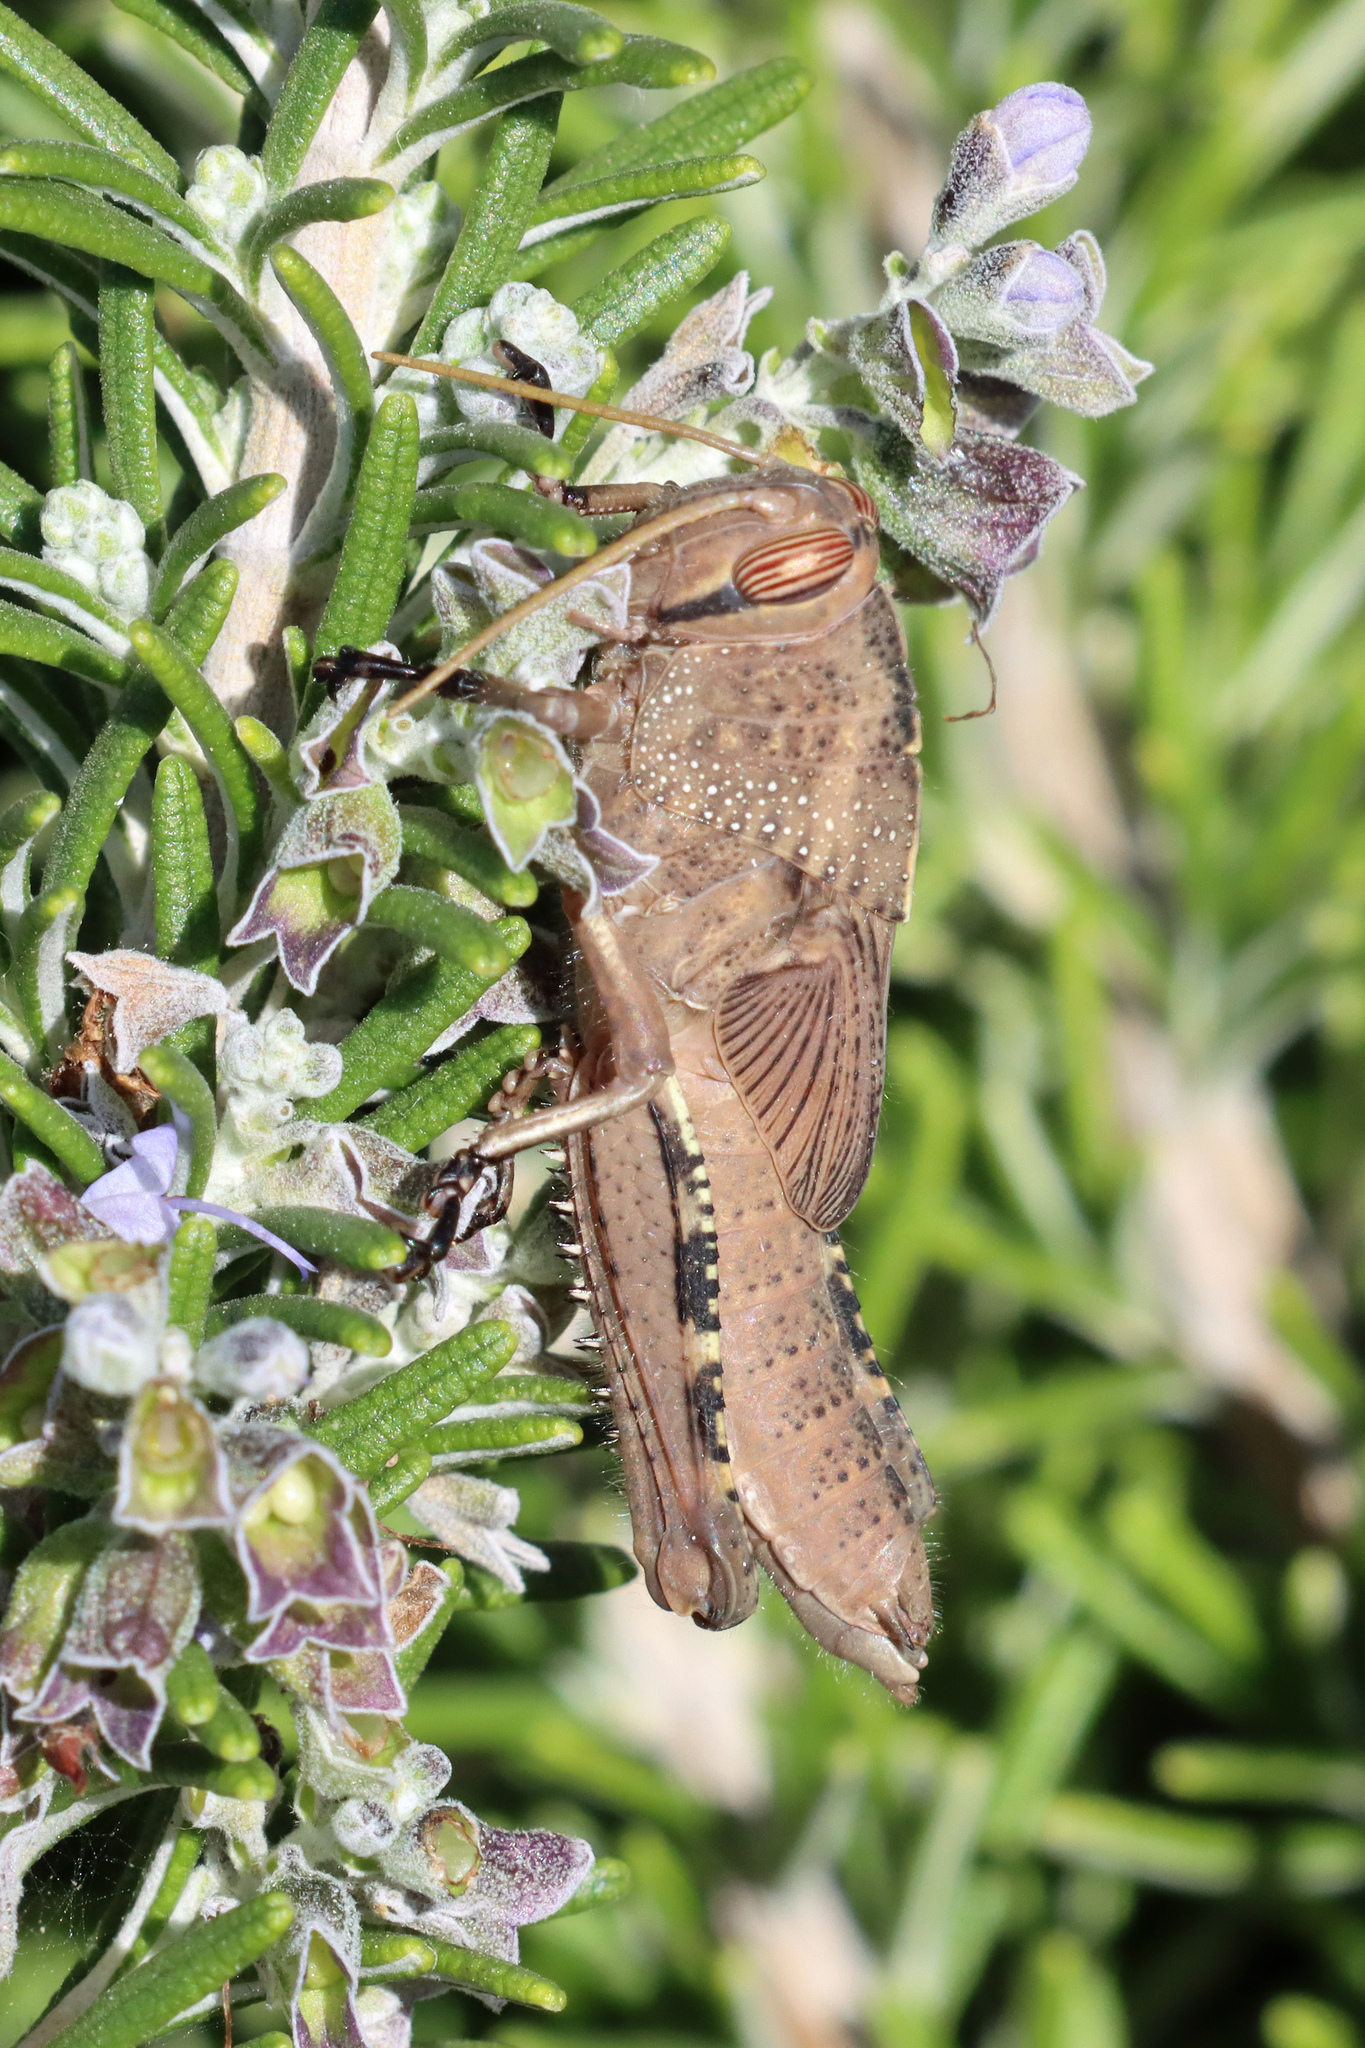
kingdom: Animalia
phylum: Arthropoda
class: Insecta
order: Orthoptera
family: Acrididae
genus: Anacridium
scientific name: Anacridium aegyptium
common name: Egyptian grasshopper
